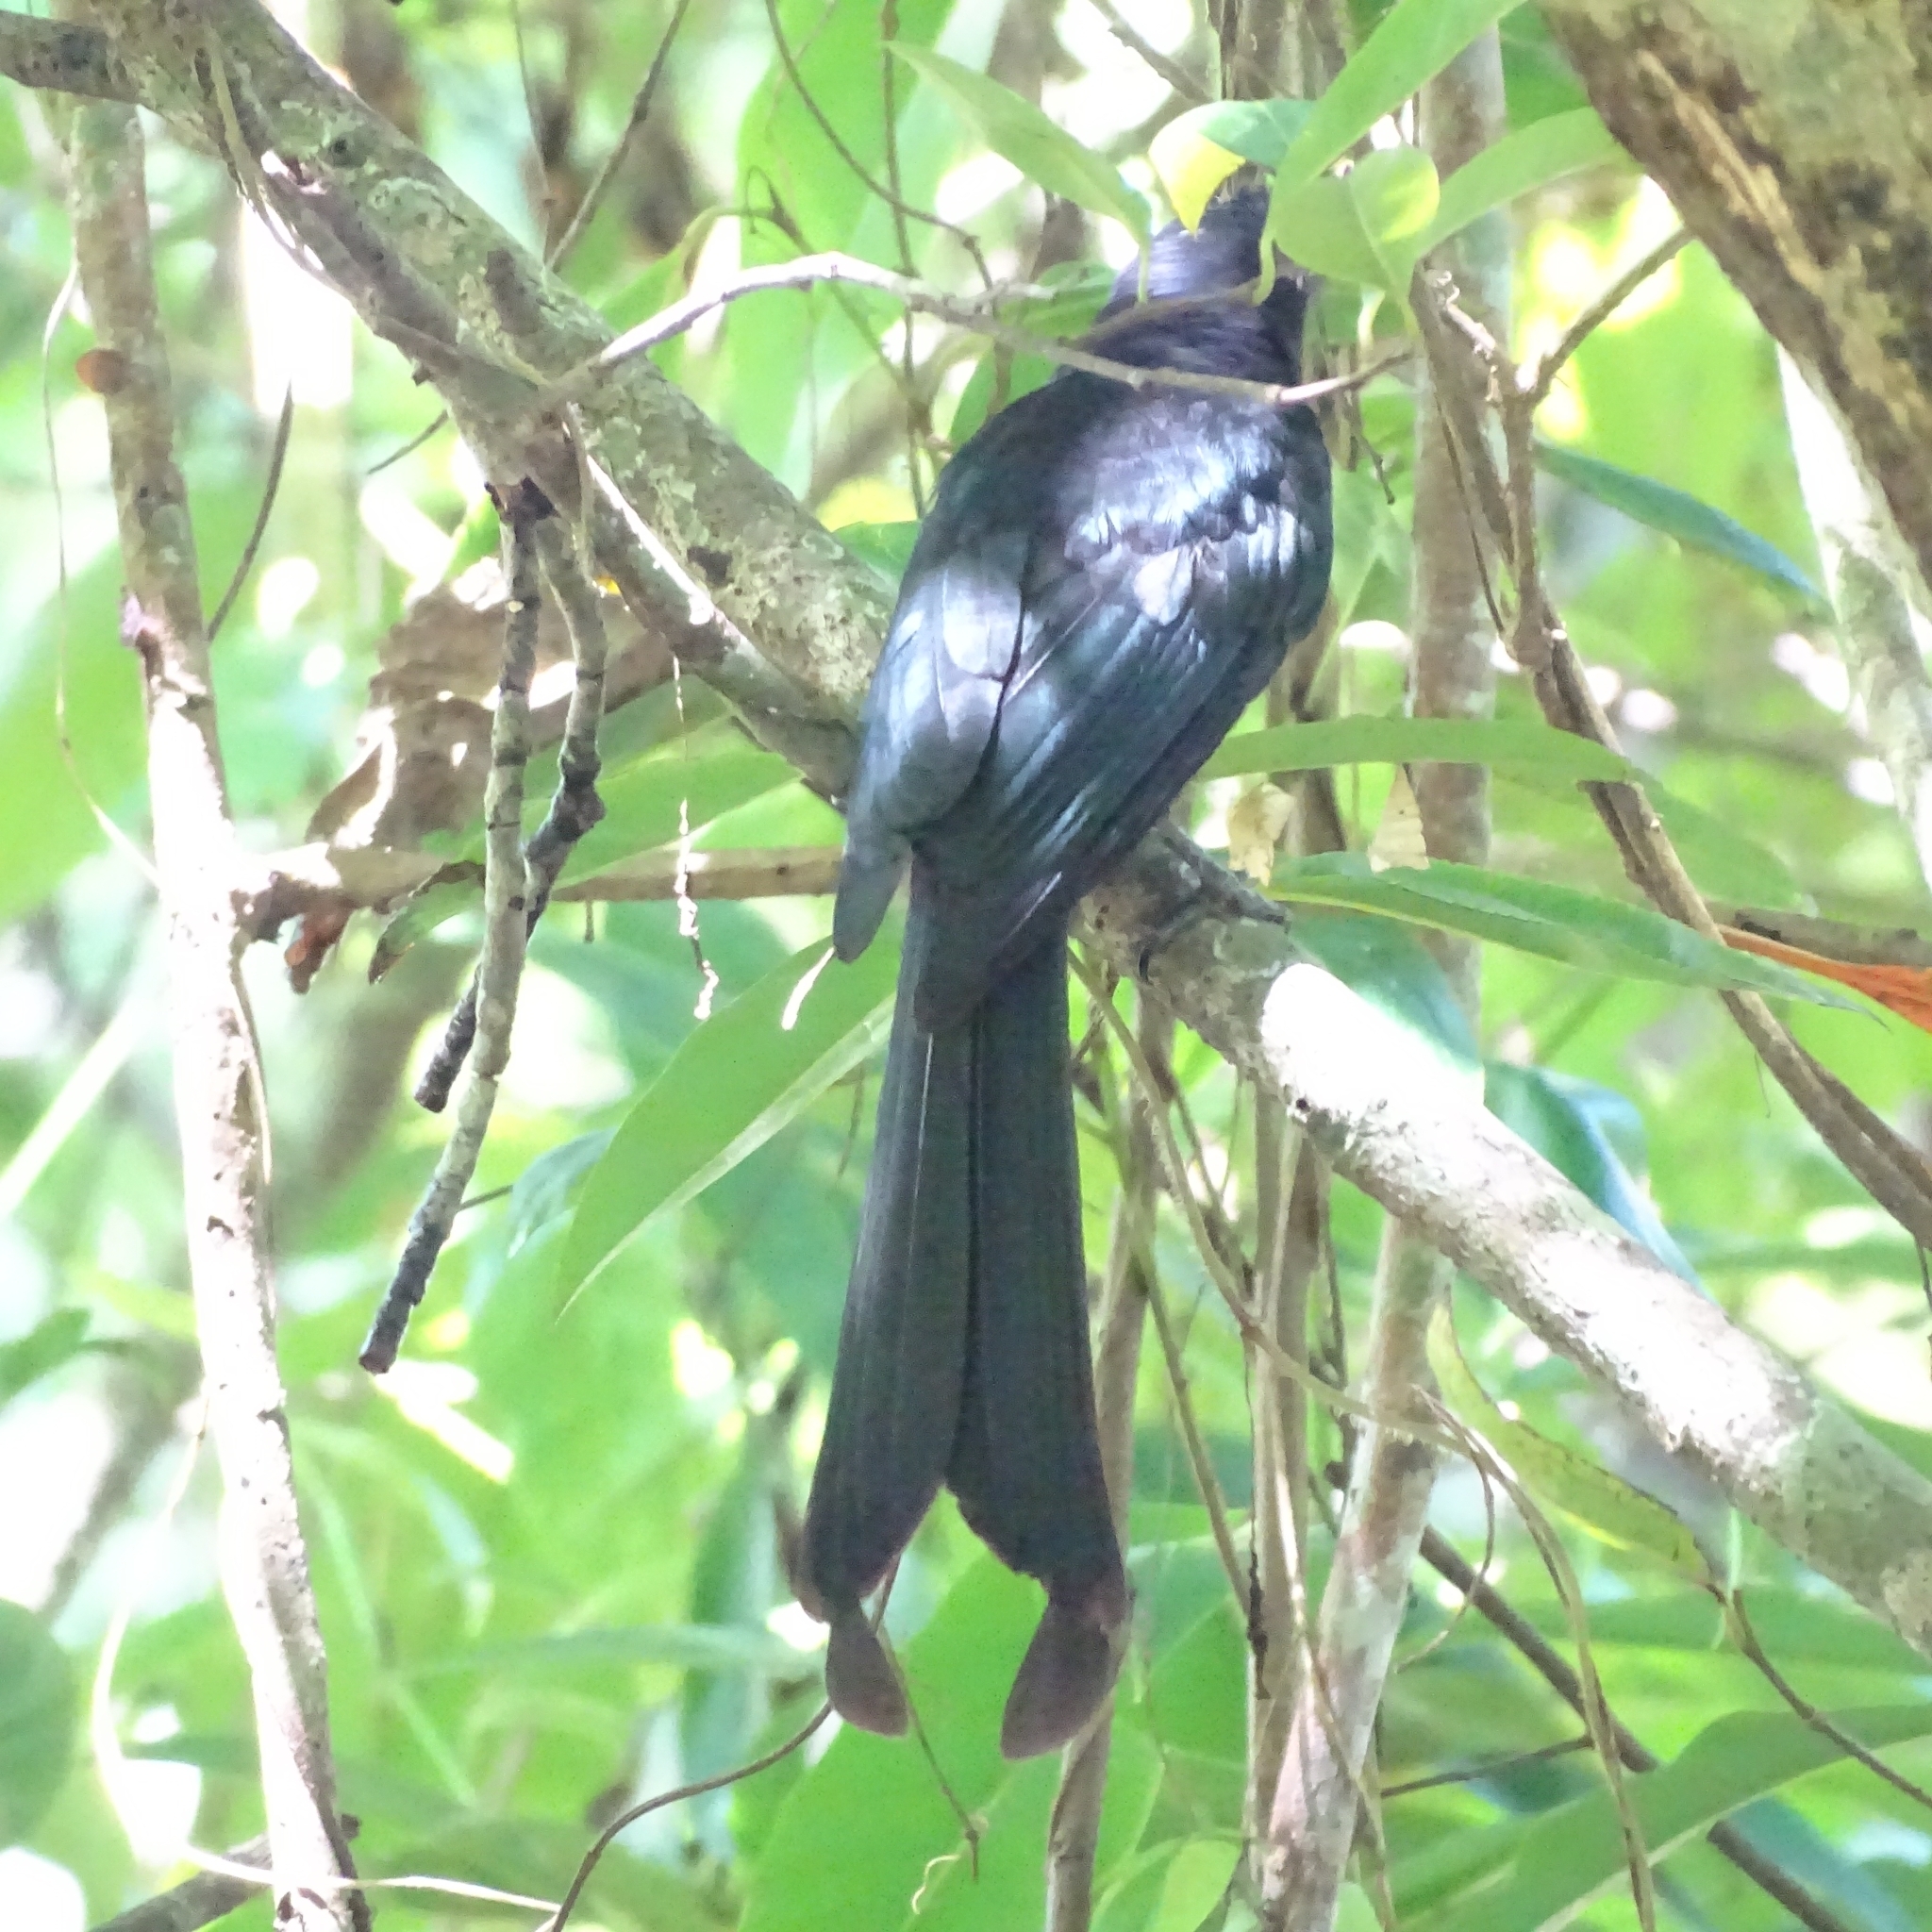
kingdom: Animalia
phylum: Chordata
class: Aves
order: Passeriformes
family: Dicruridae
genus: Dicrurus
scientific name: Dicrurus paradiseus
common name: Greater racket-tailed drongo
